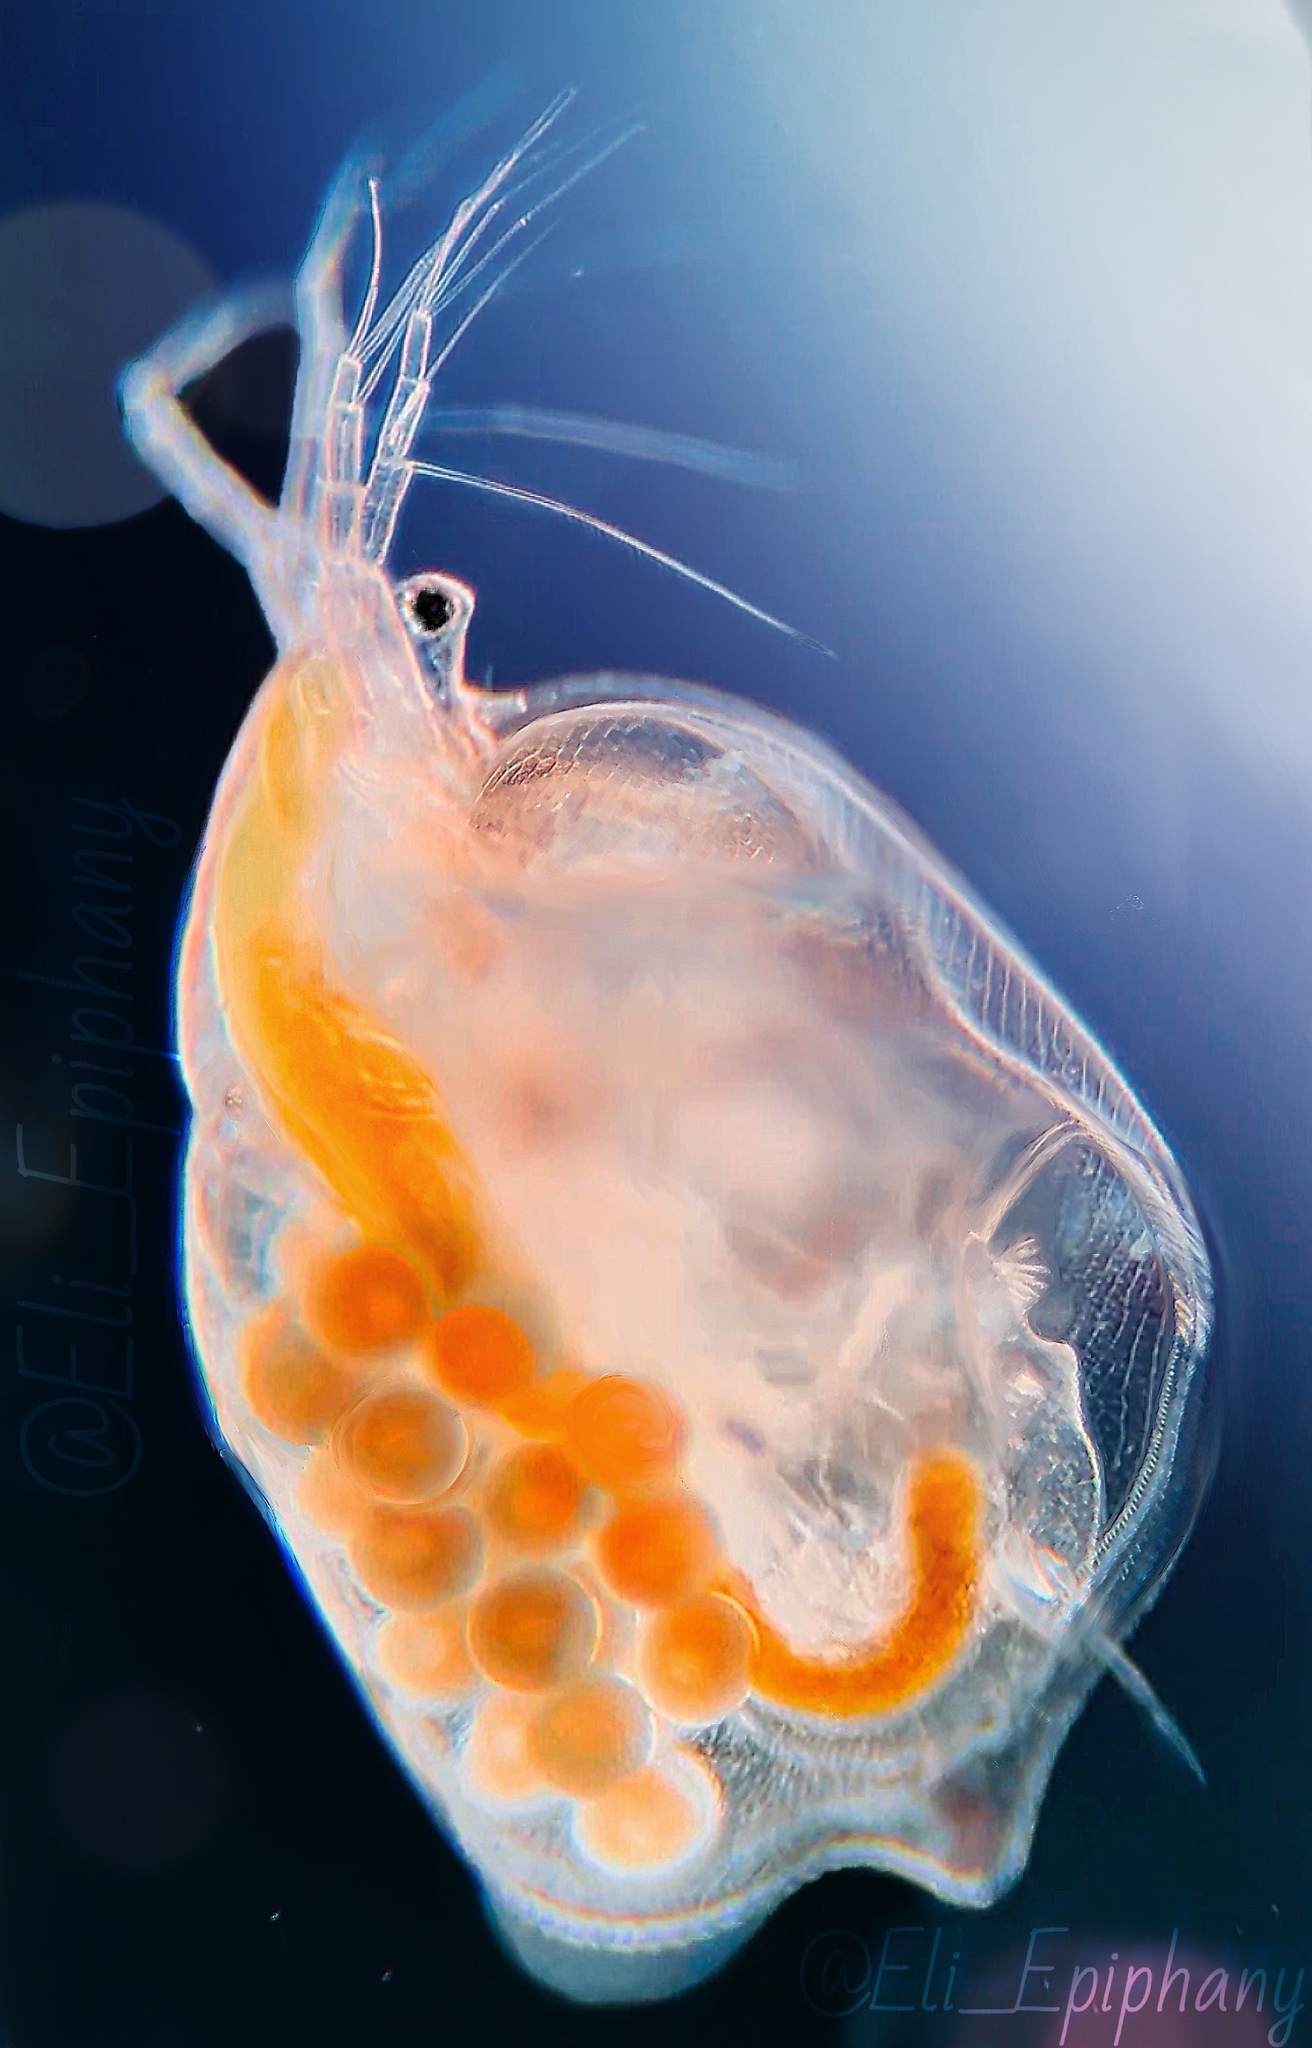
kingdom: Animalia
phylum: Arthropoda
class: Branchiopoda
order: Diplostraca
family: Daphniidae
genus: Simocephalus
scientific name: Simocephalus serrulatus
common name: Water flea
